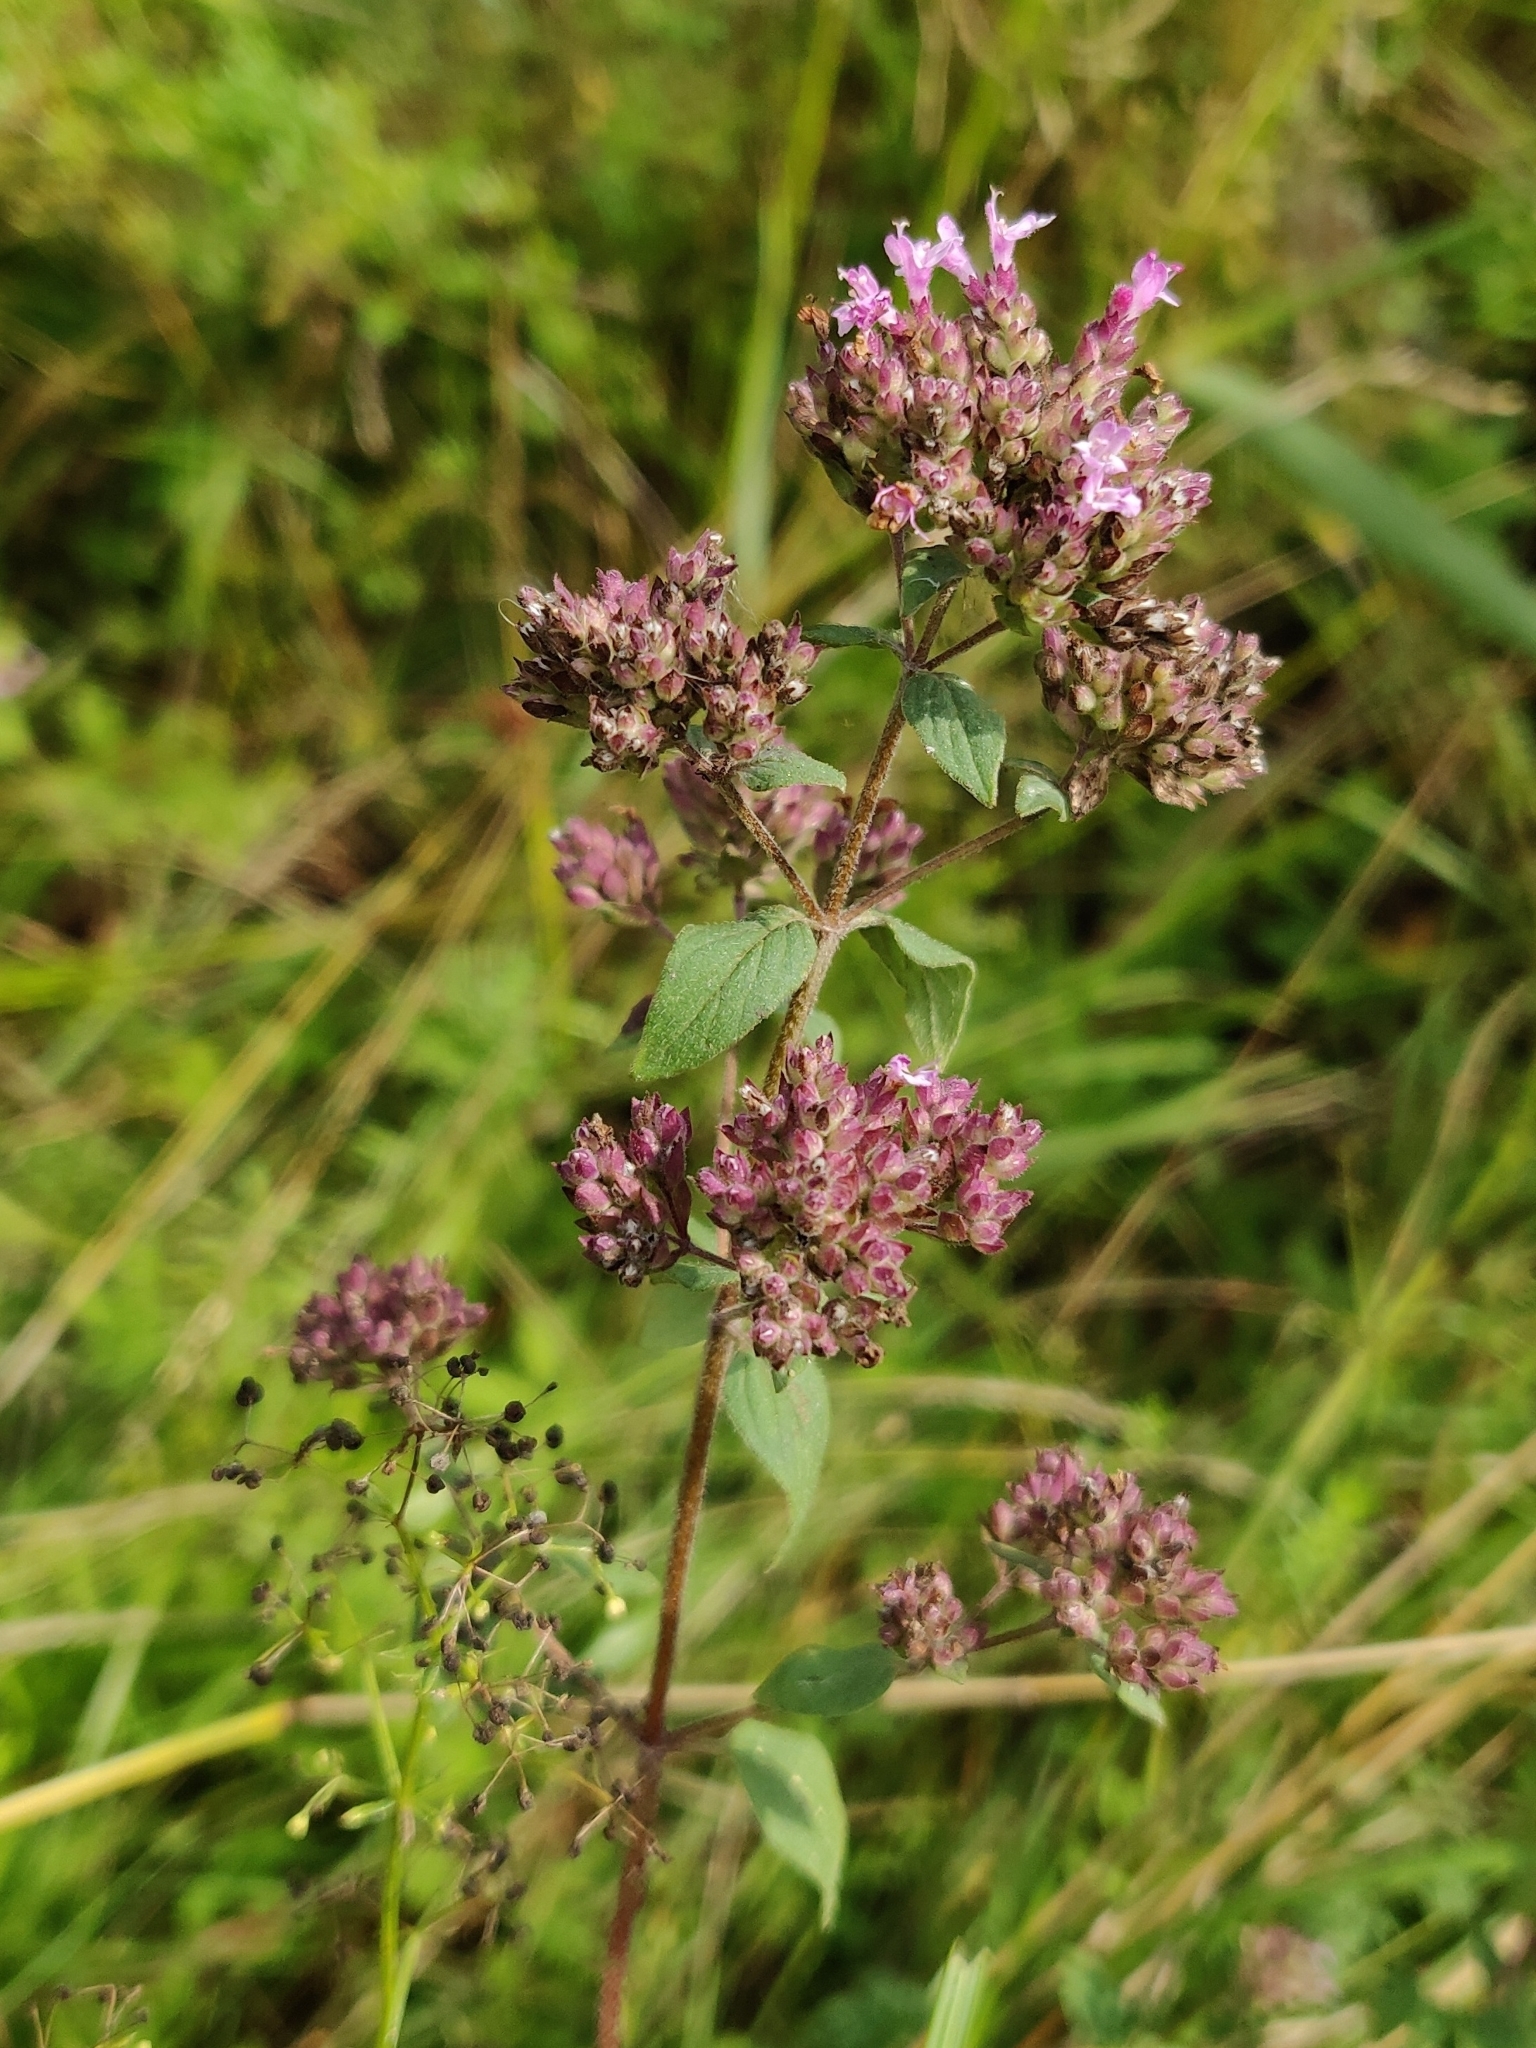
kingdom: Plantae
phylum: Tracheophyta
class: Magnoliopsida
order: Lamiales
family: Lamiaceae
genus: Origanum
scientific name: Origanum vulgare
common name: Wild marjoram
